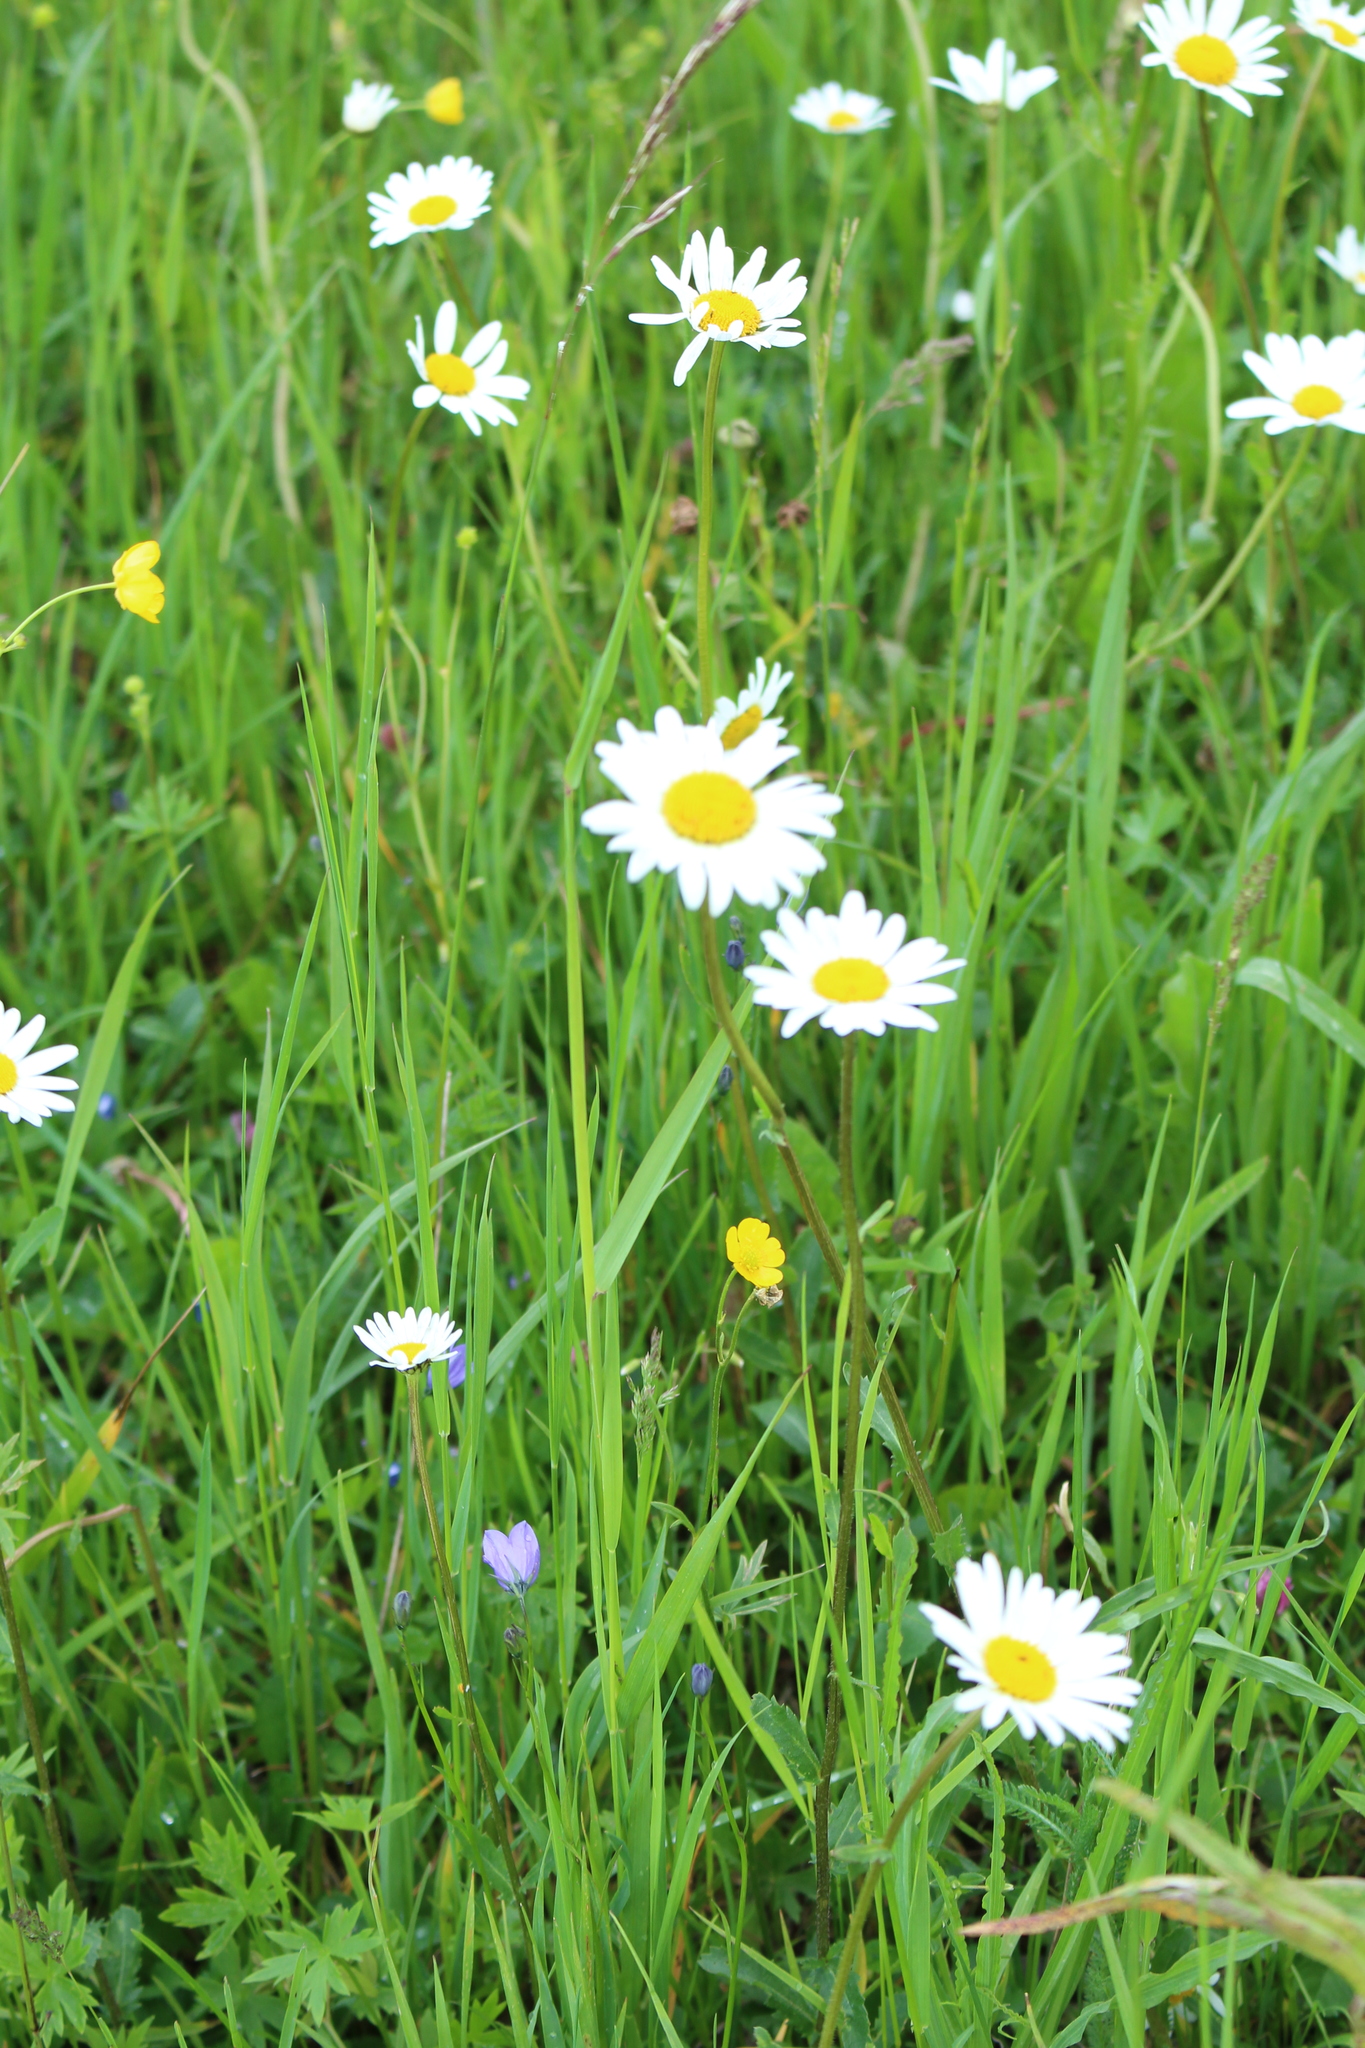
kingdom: Plantae
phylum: Tracheophyta
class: Magnoliopsida
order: Asterales
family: Asteraceae
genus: Leucanthemum
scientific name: Leucanthemum vulgare
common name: Oxeye daisy
